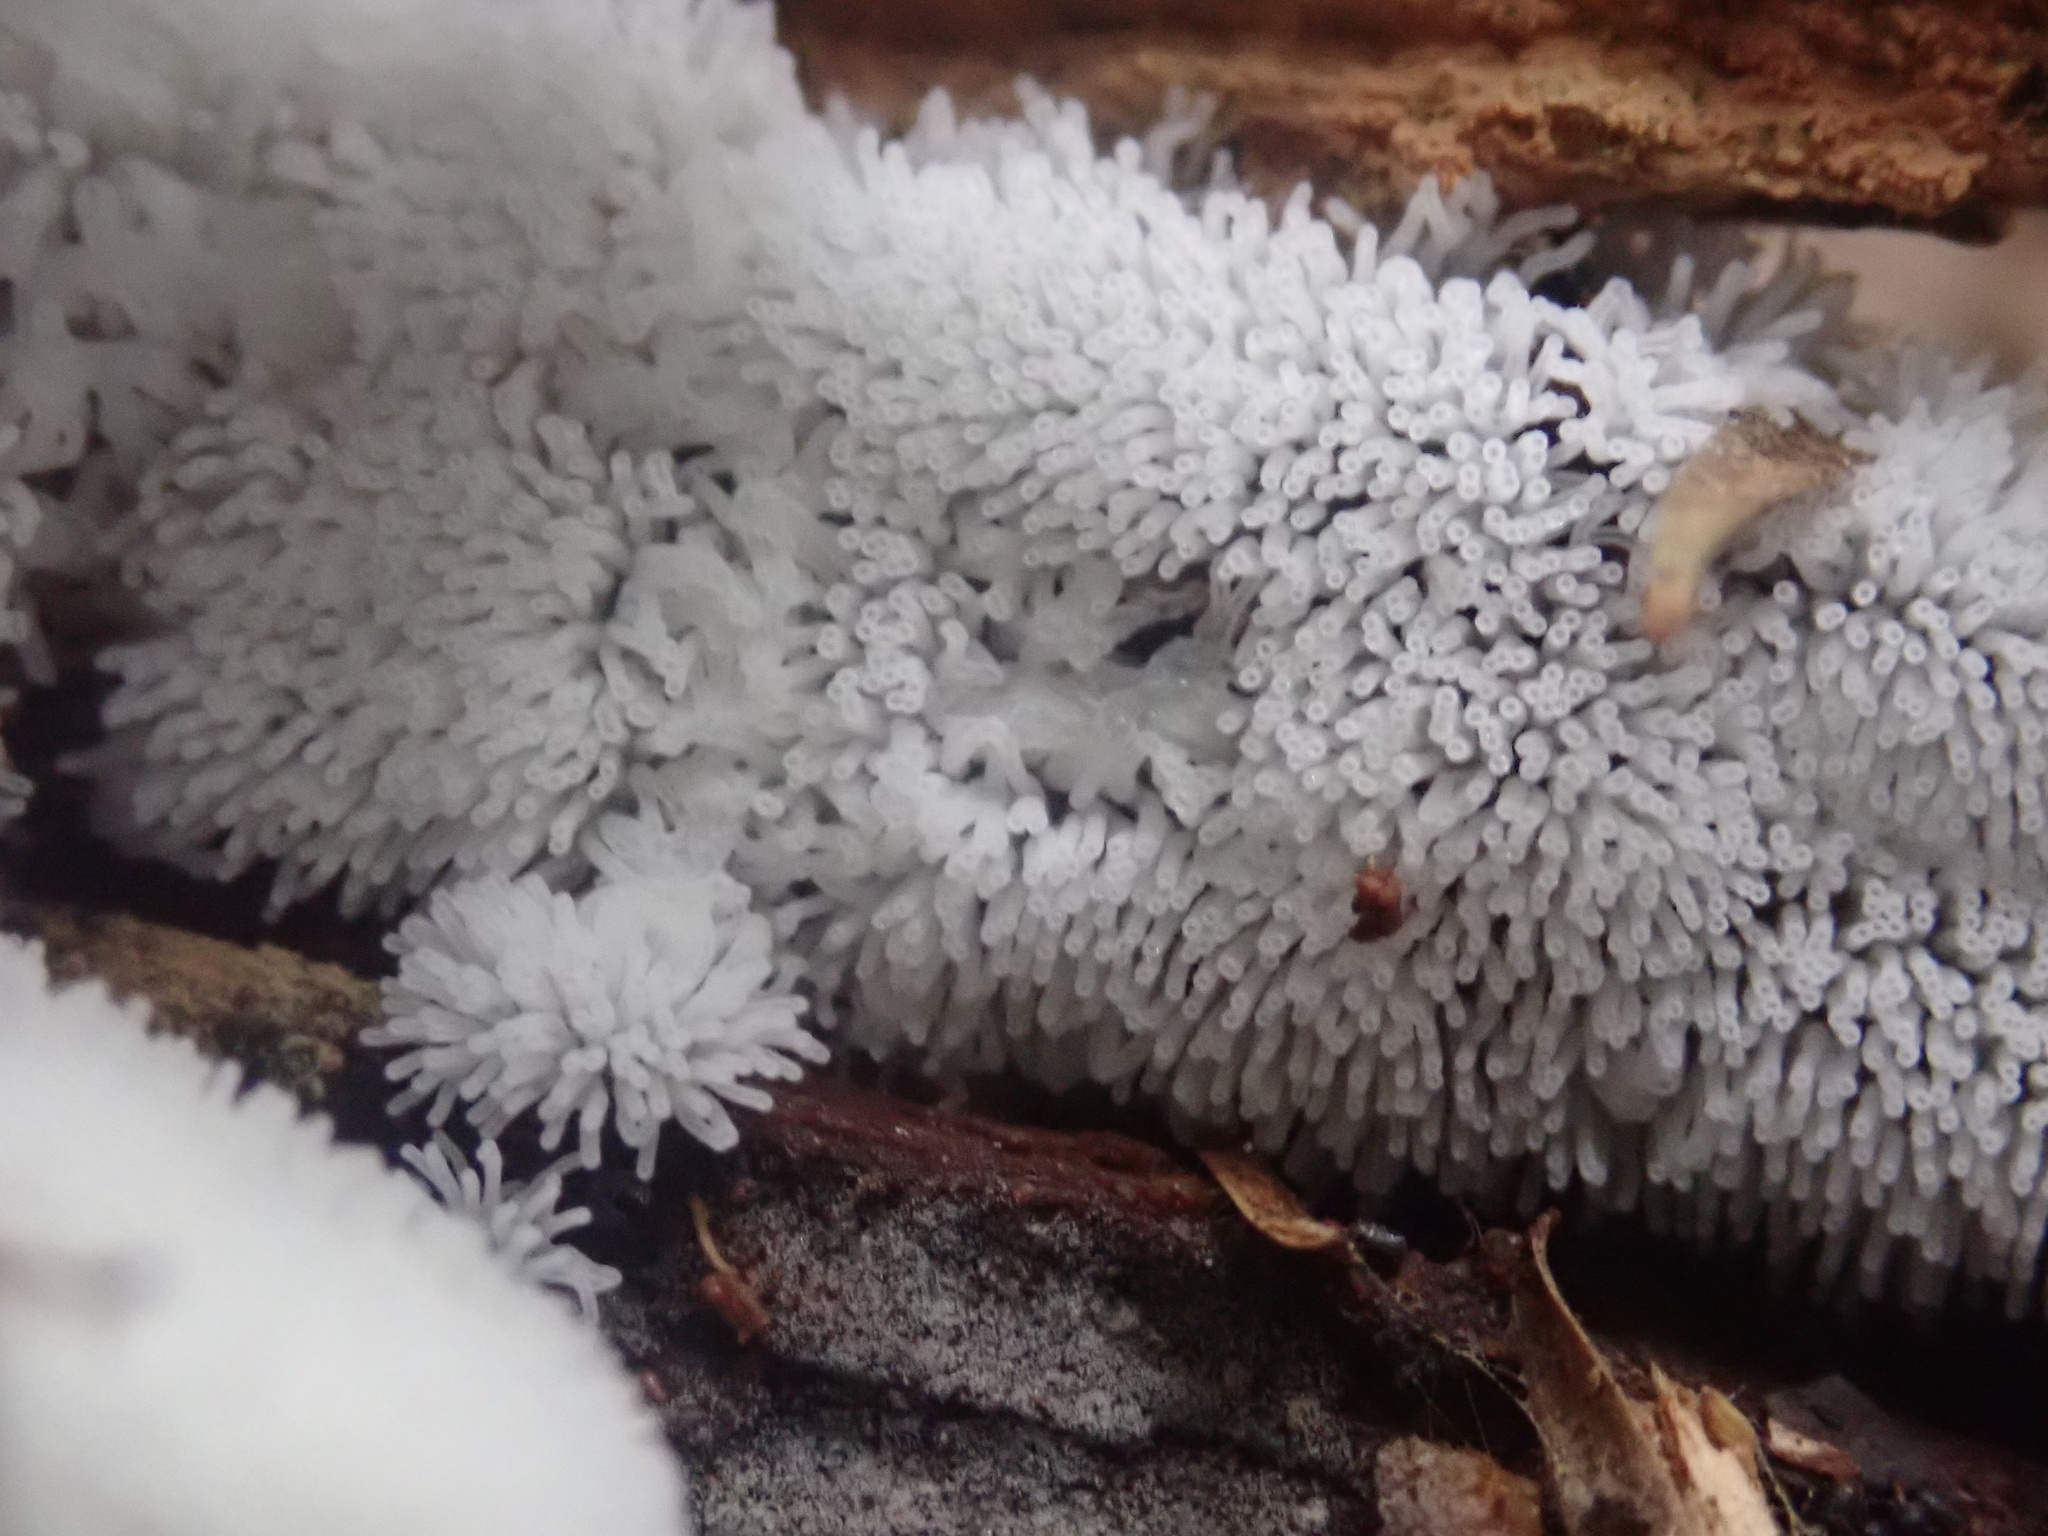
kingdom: Protozoa
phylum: Mycetozoa
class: Protosteliomycetes
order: Ceratiomyxales
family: Ceratiomyxaceae
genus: Ceratiomyxa
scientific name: Ceratiomyxa fruticulosa
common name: Honeycomb coral slime mold
